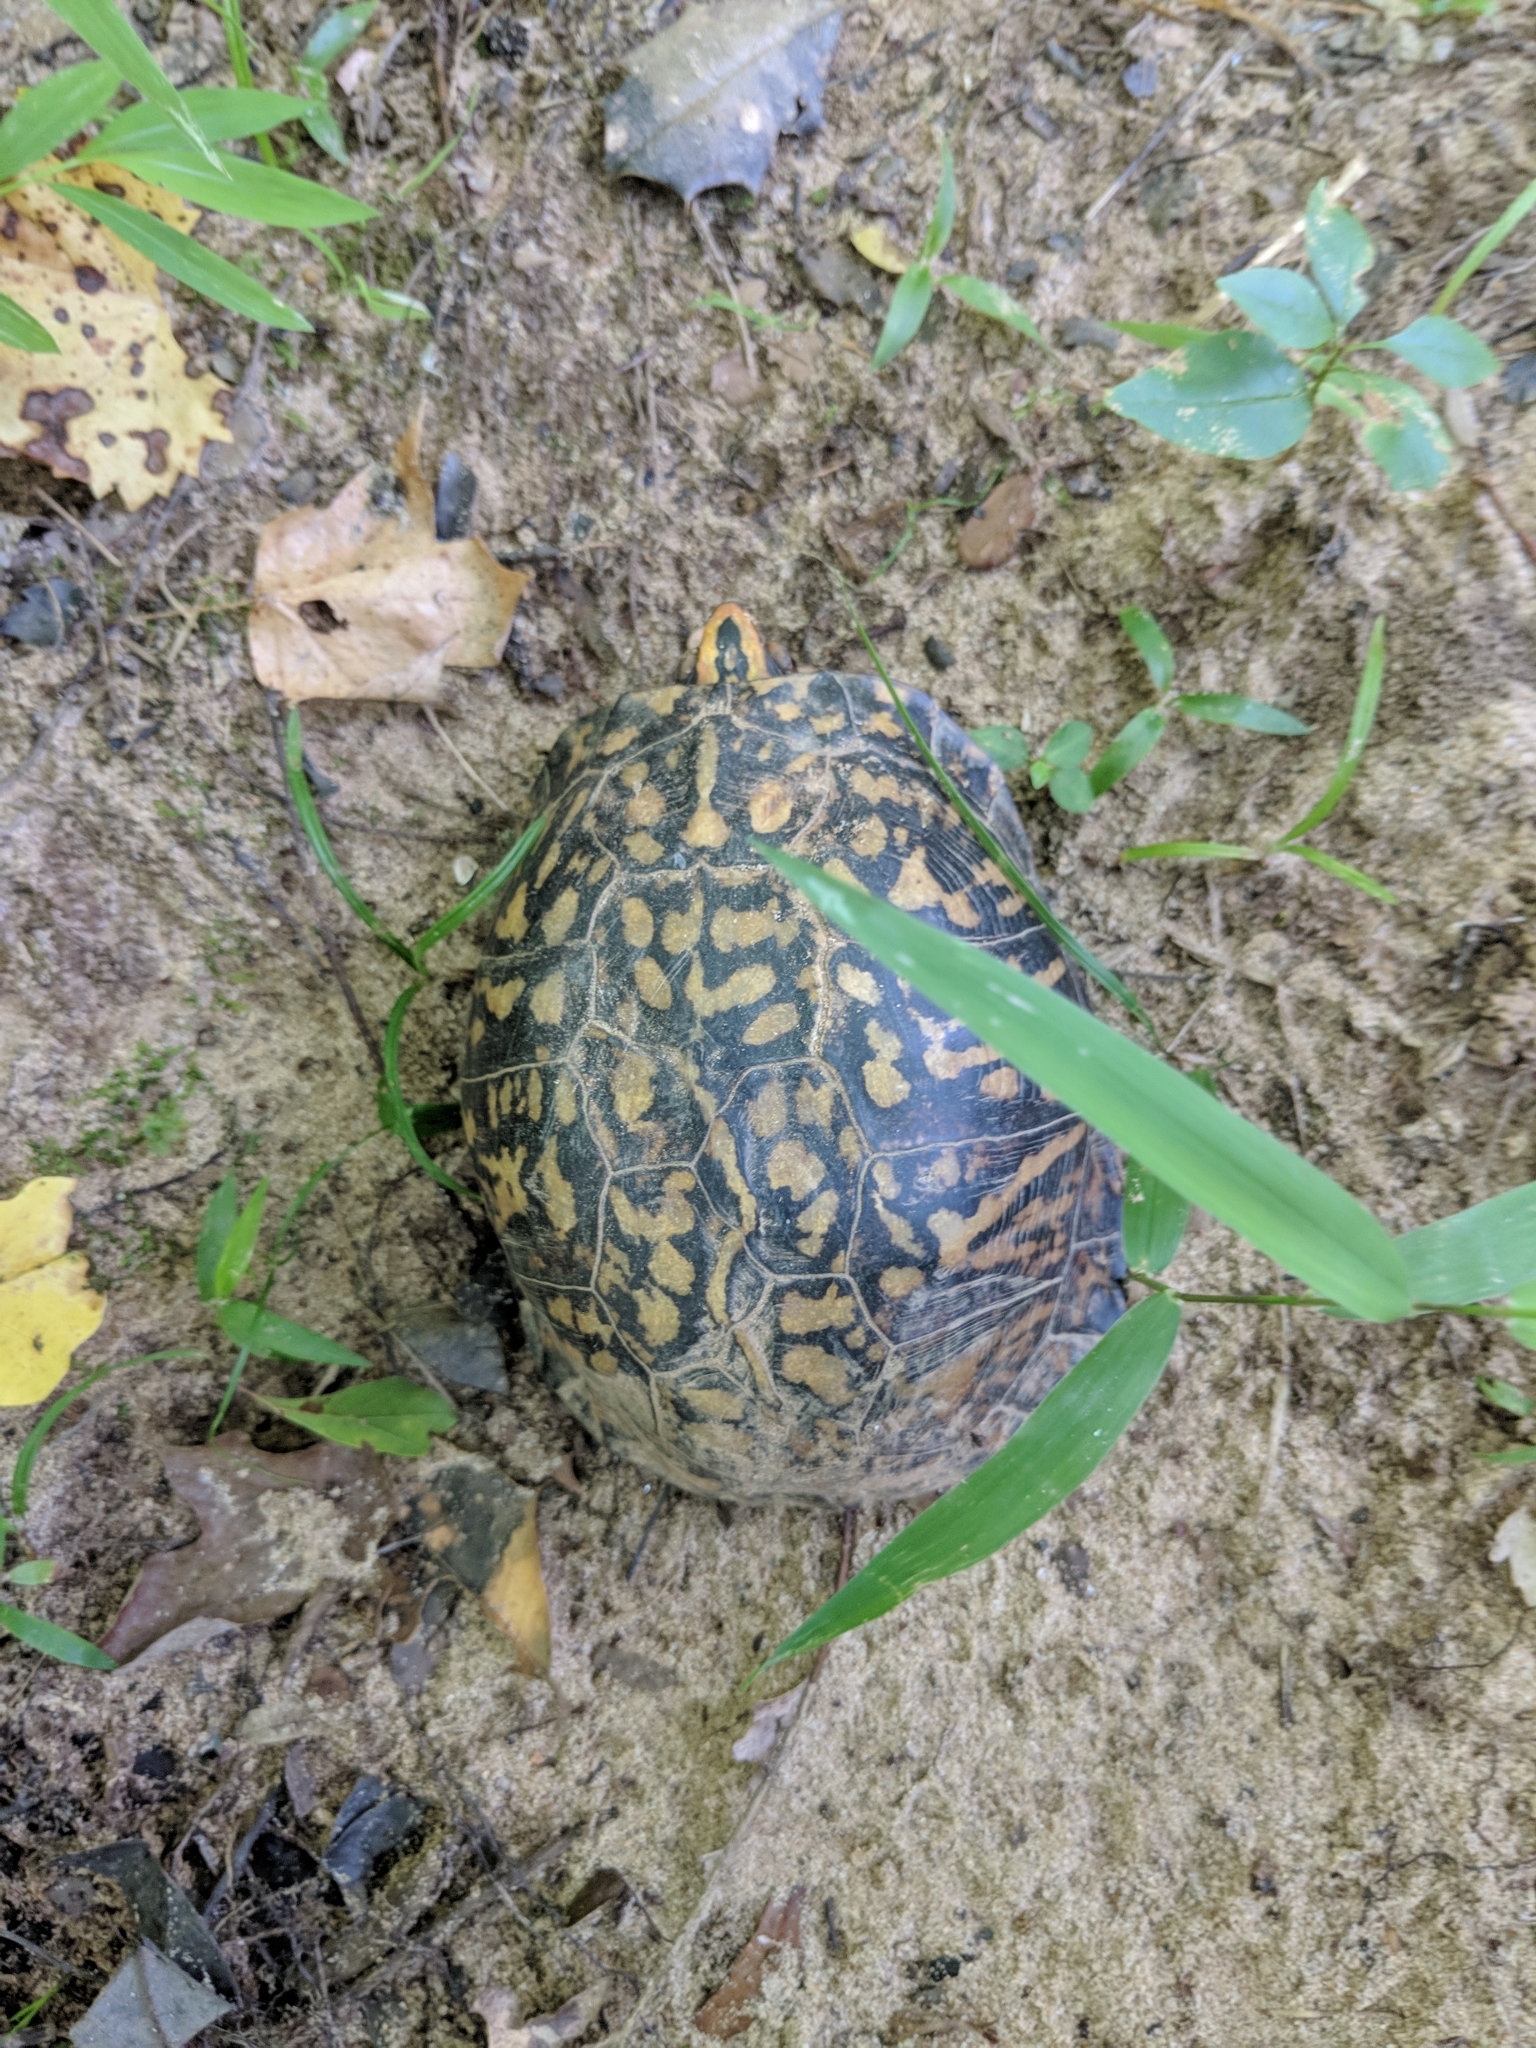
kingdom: Animalia
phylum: Chordata
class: Testudines
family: Emydidae
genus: Terrapene
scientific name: Terrapene carolina
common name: Common box turtle
